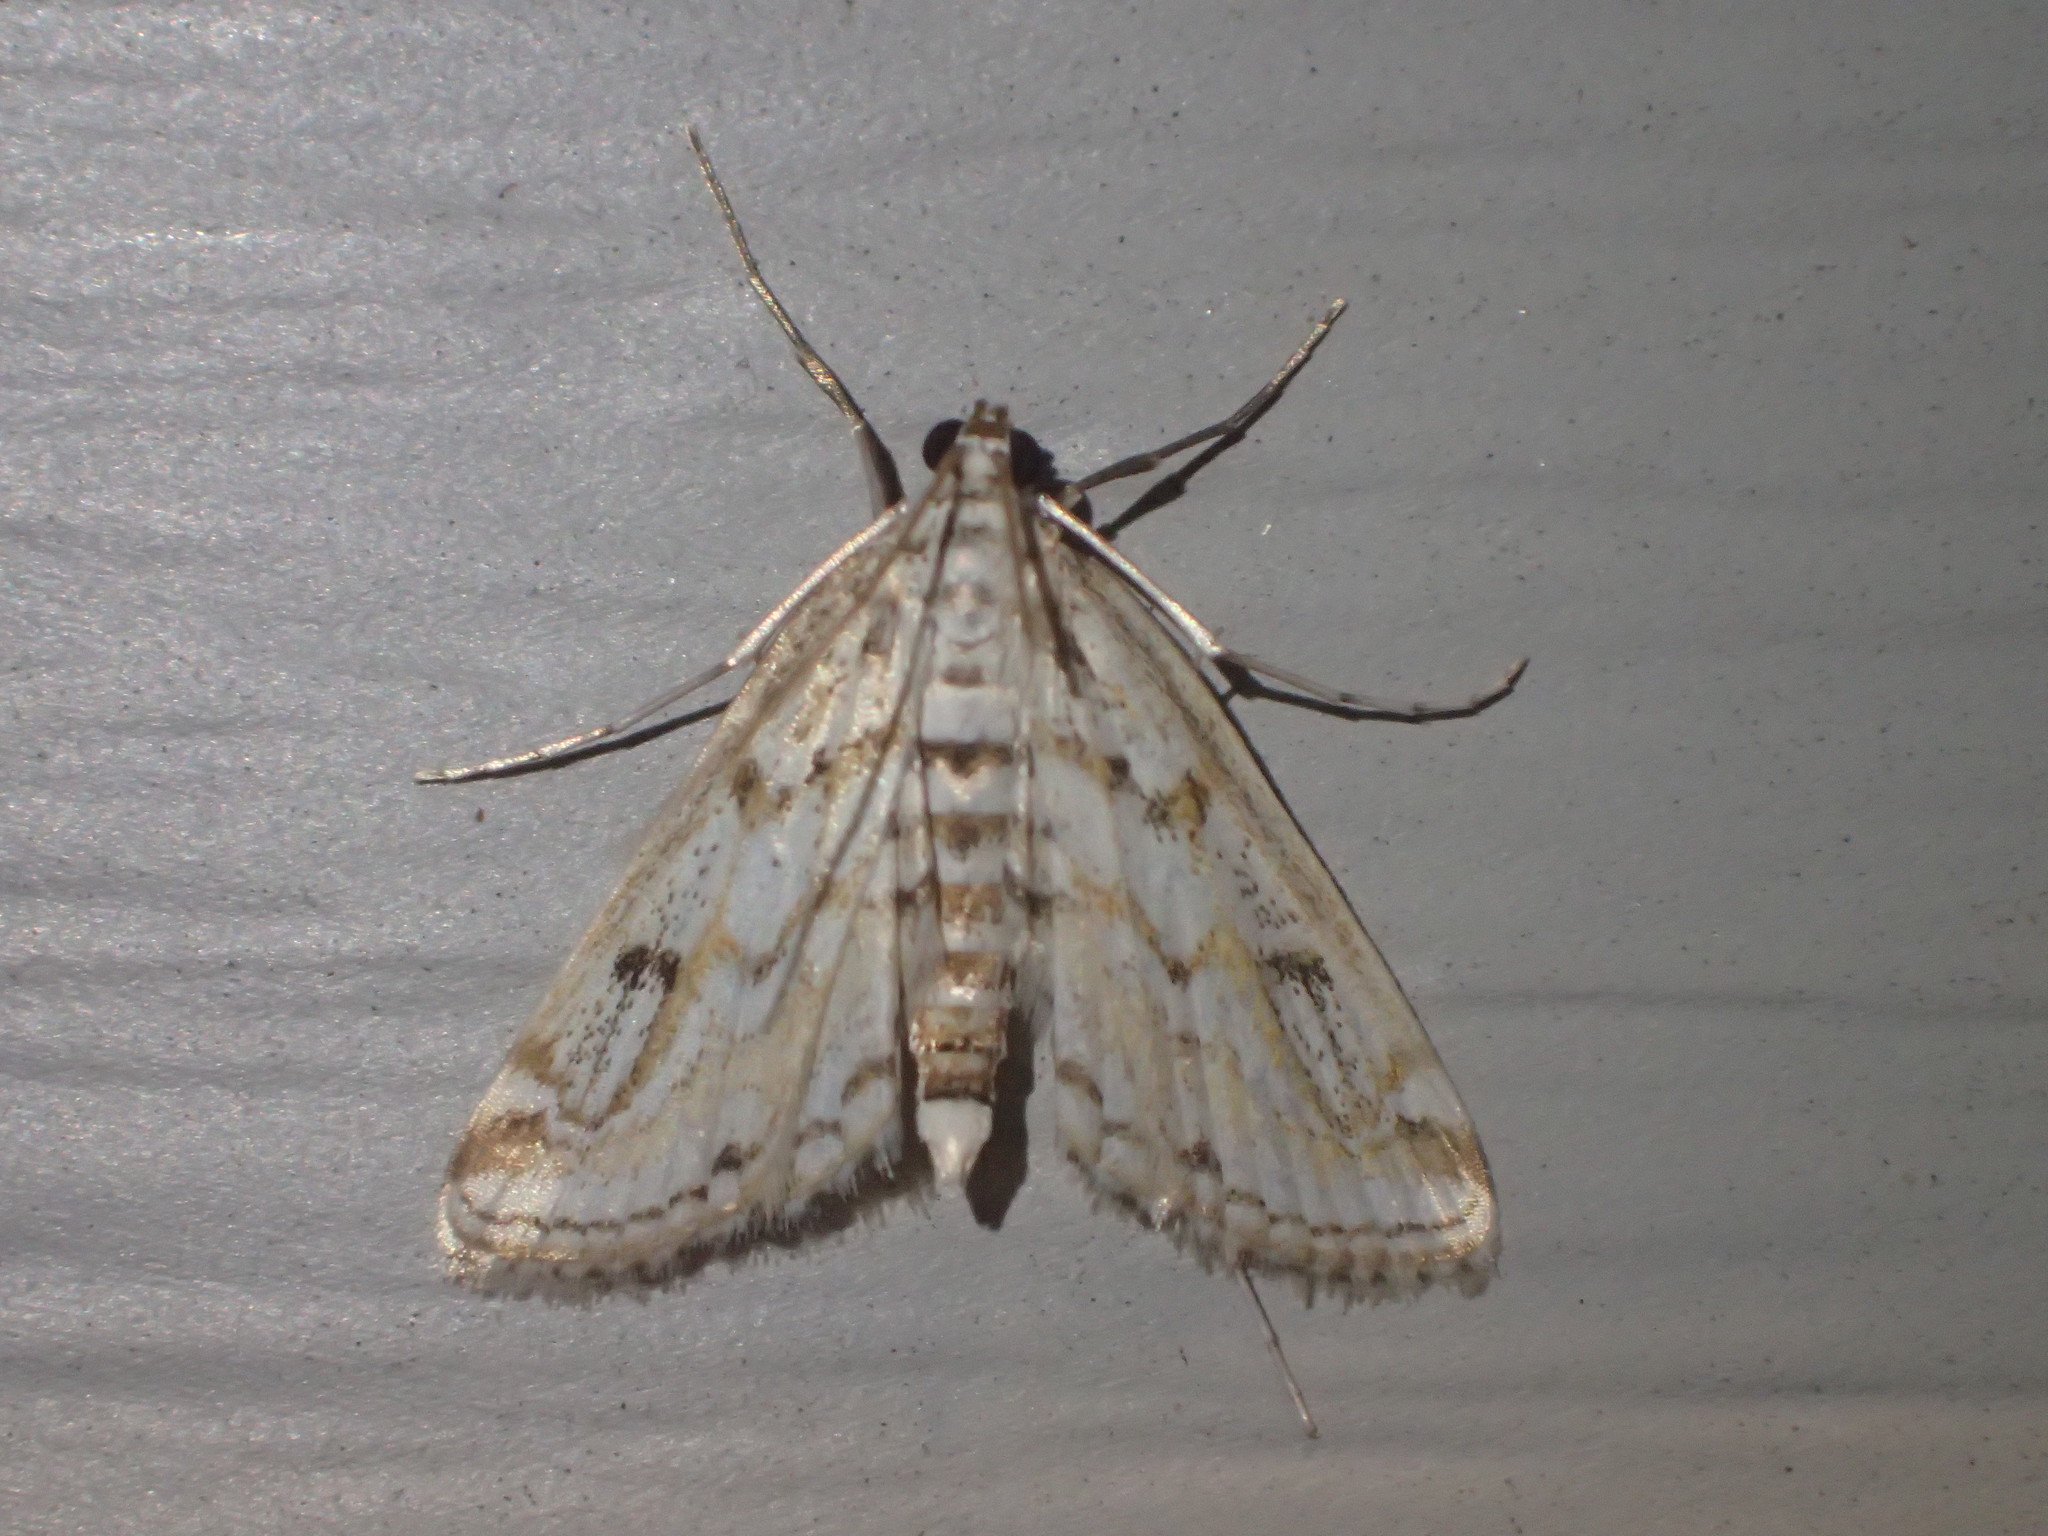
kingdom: Animalia
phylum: Arthropoda
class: Insecta
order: Lepidoptera
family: Crambidae
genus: Parapoynx
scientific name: Parapoynx allionealis
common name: Bladderwort casemaker
